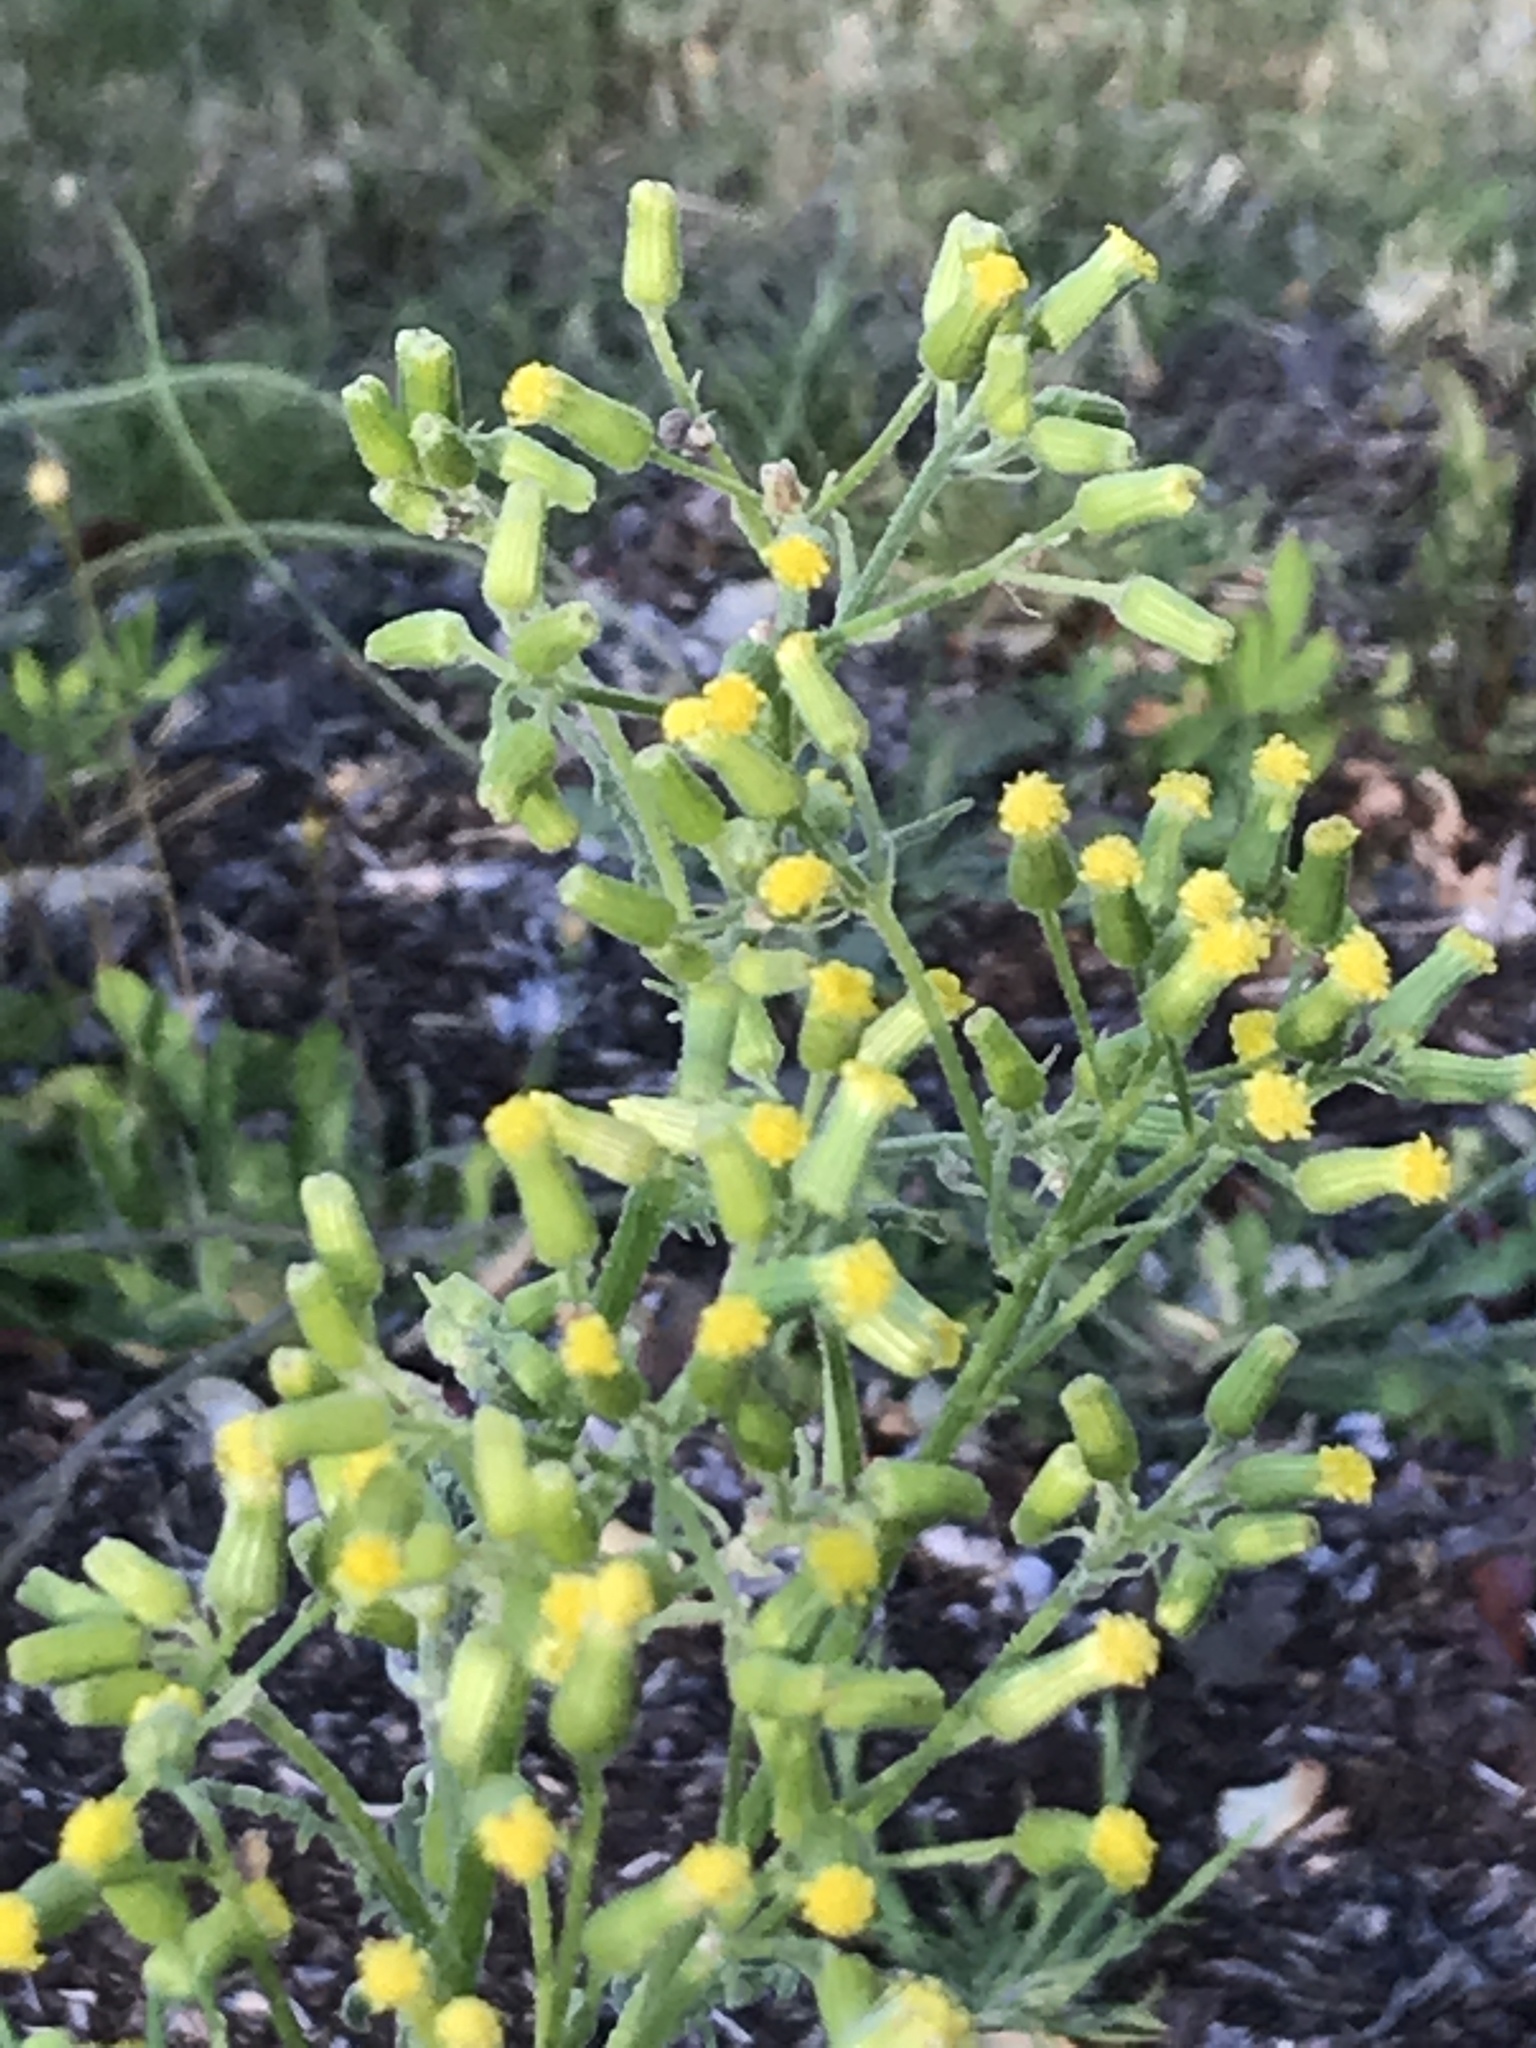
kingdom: Plantae
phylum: Tracheophyta
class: Magnoliopsida
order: Asterales
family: Asteraceae
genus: Senecio
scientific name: Senecio sylvaticus
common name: Woodland ragwort
